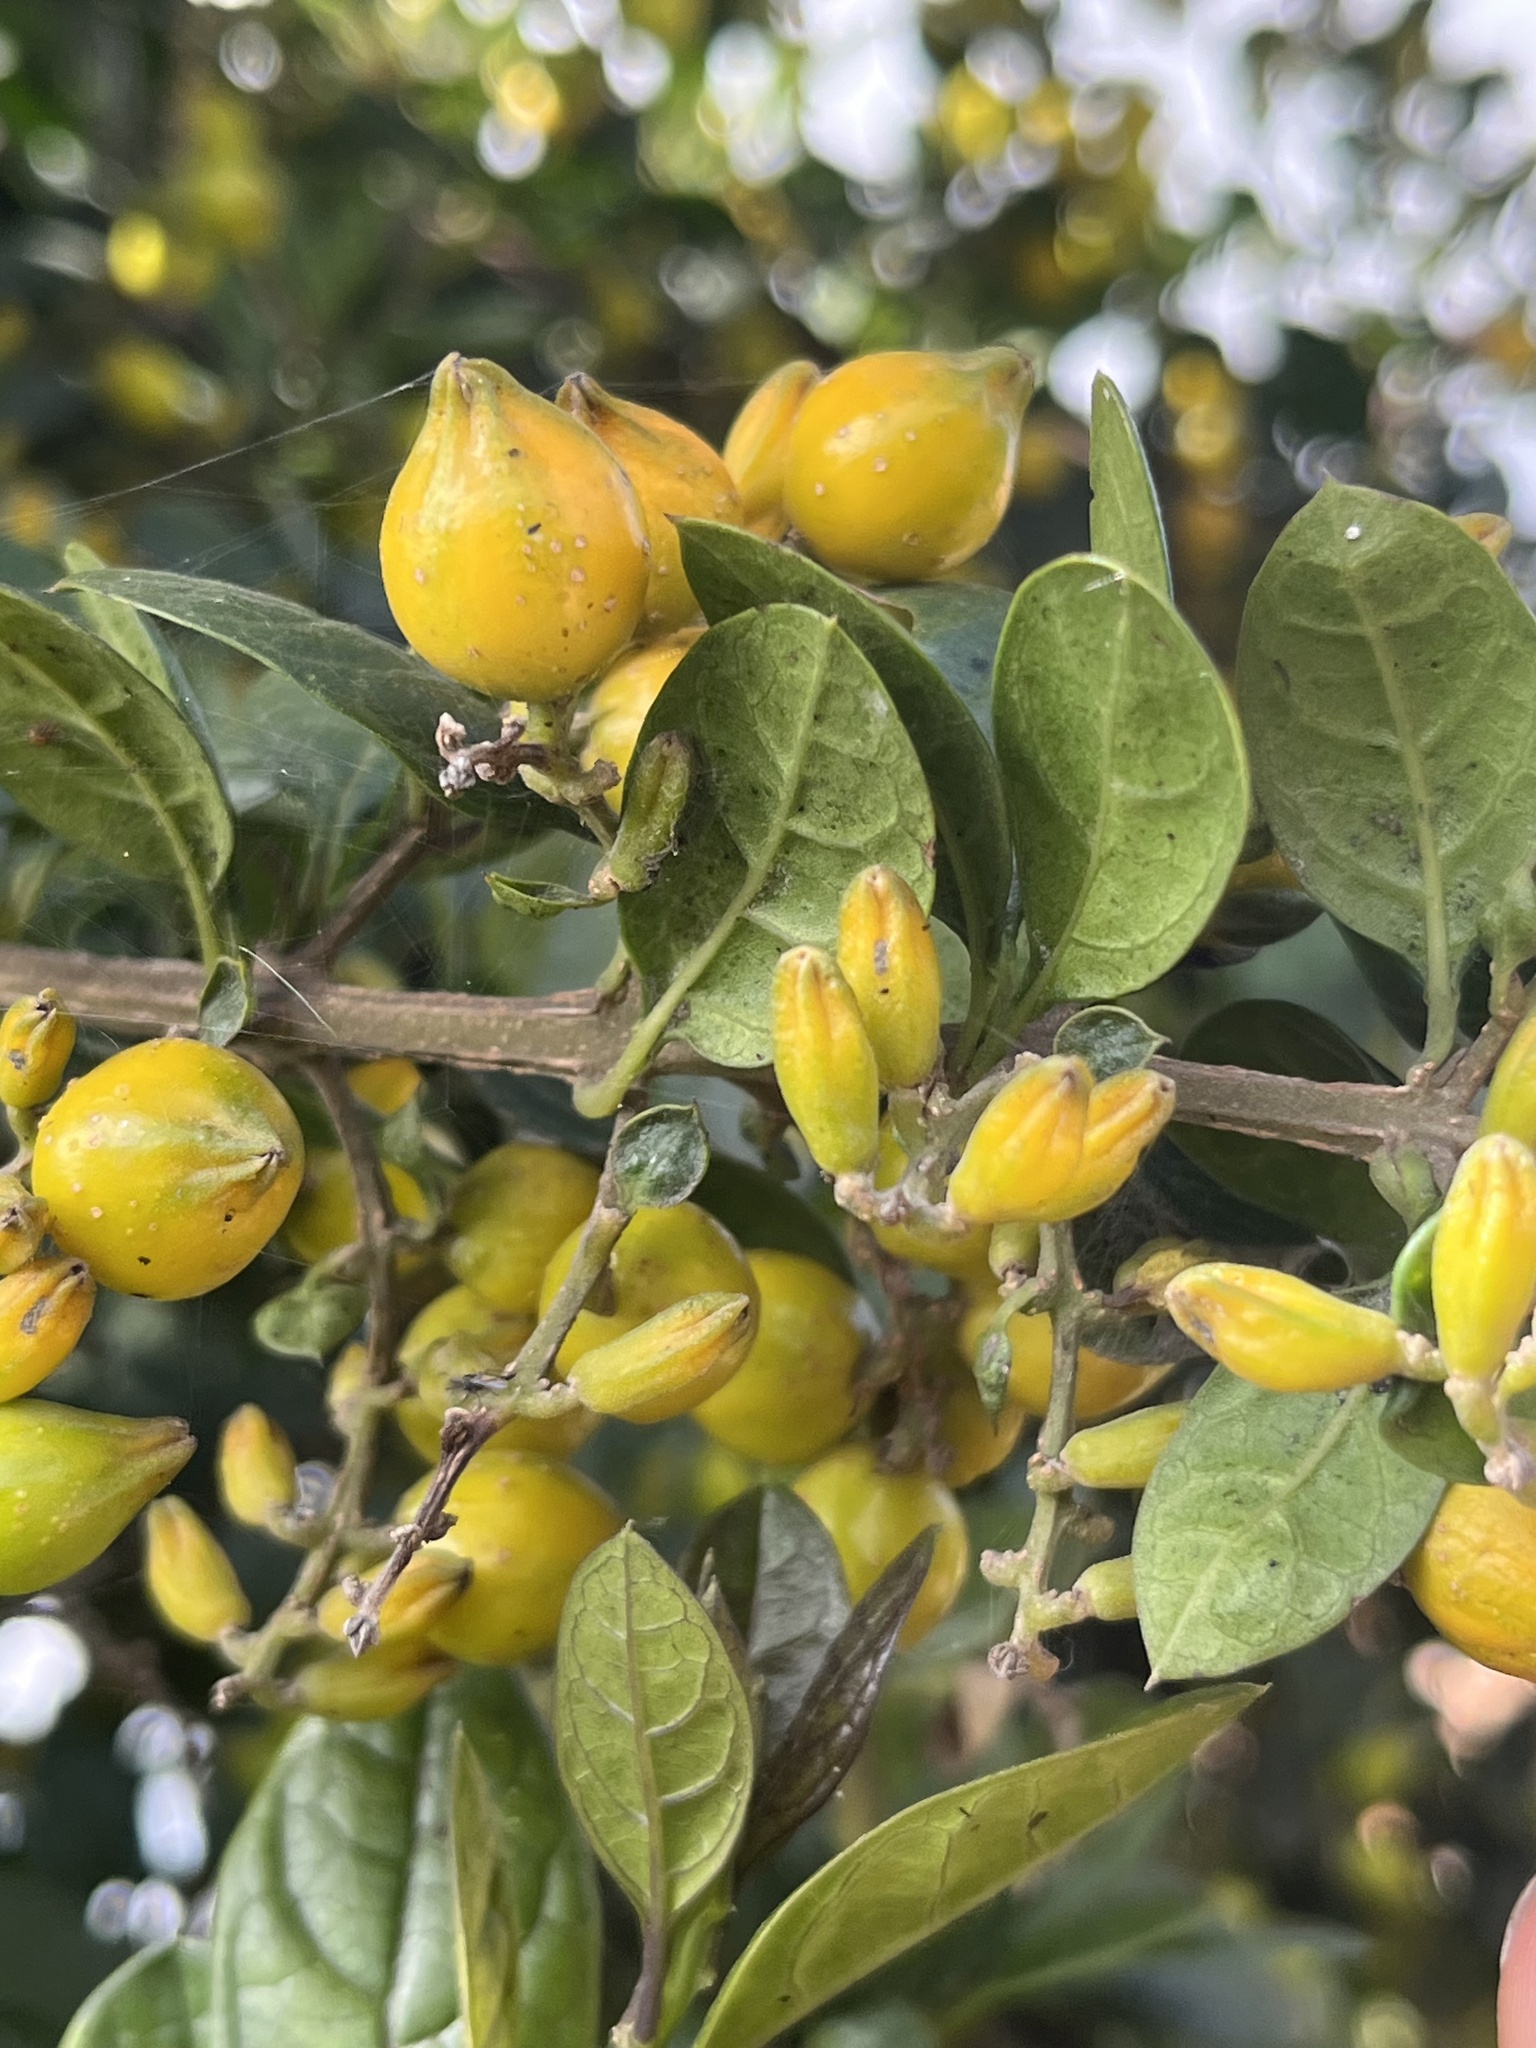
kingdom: Plantae
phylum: Tracheophyta
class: Magnoliopsida
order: Lamiales
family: Verbenaceae
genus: Duranta
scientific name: Duranta mutisii
